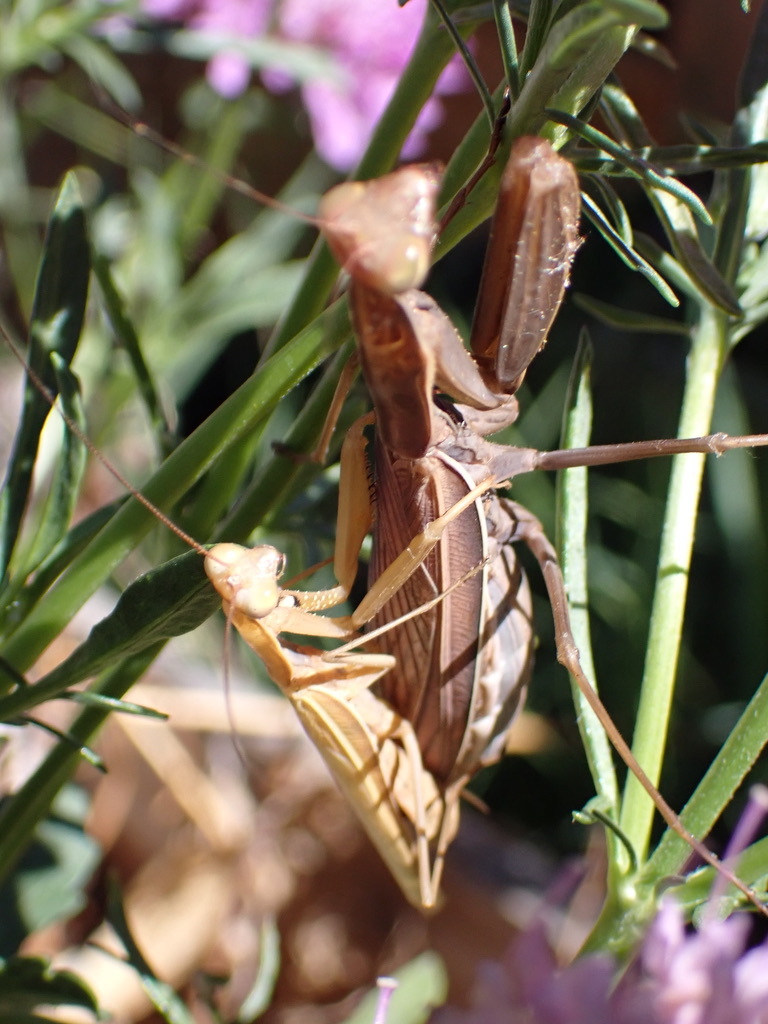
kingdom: Animalia
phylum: Arthropoda
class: Insecta
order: Mantodea
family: Mantidae
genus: Mantis
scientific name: Mantis religiosa
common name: Praying mantis
